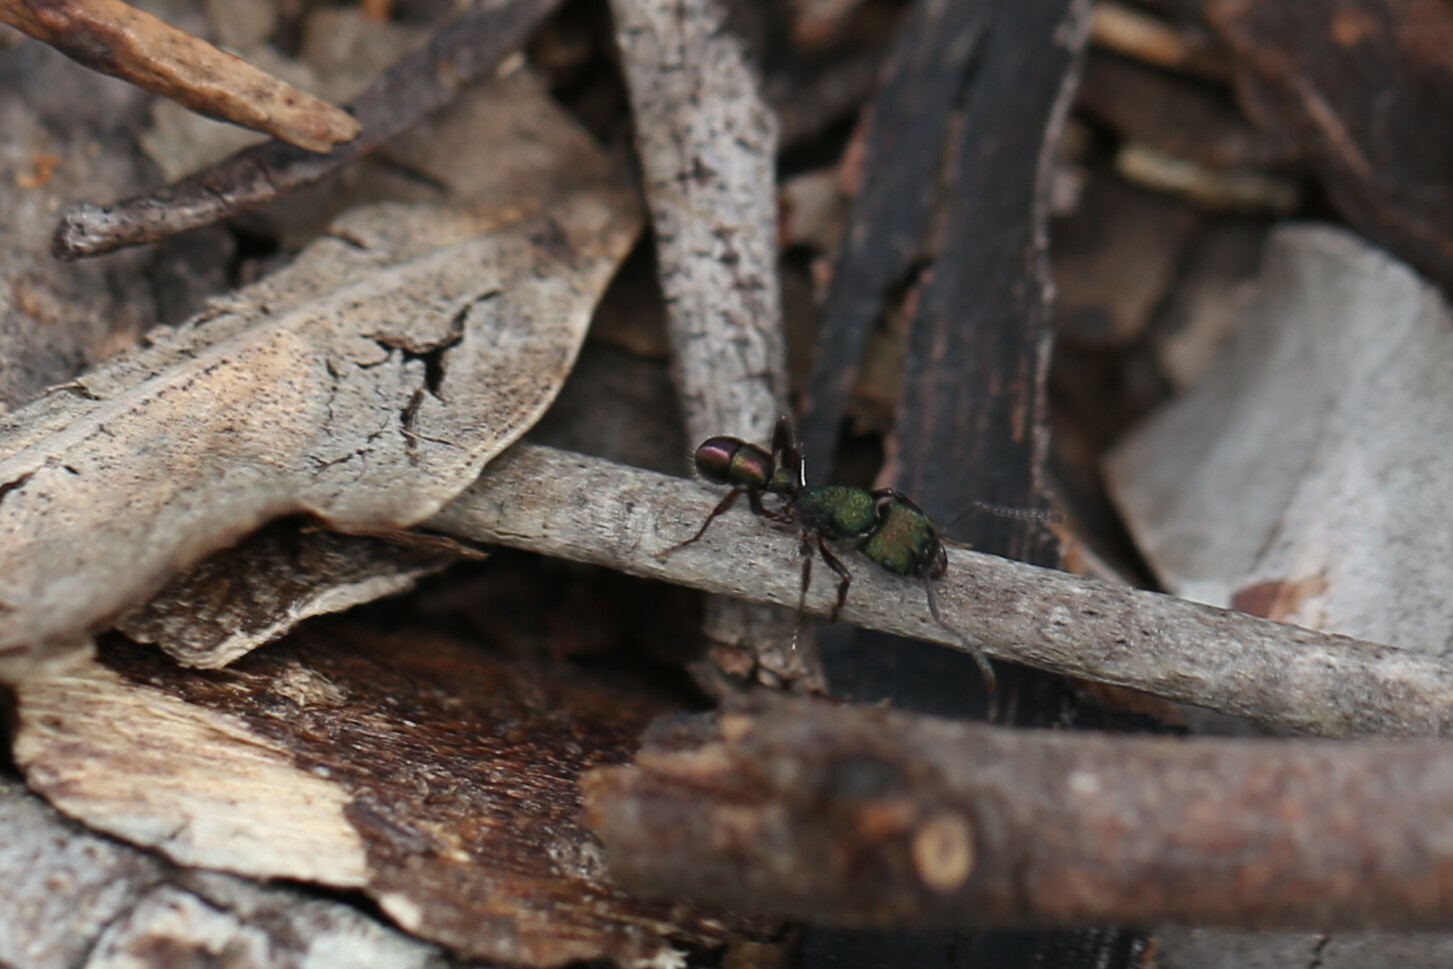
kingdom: Animalia
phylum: Arthropoda
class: Insecta
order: Hymenoptera
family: Formicidae
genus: Rhytidoponera
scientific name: Rhytidoponera metallica
